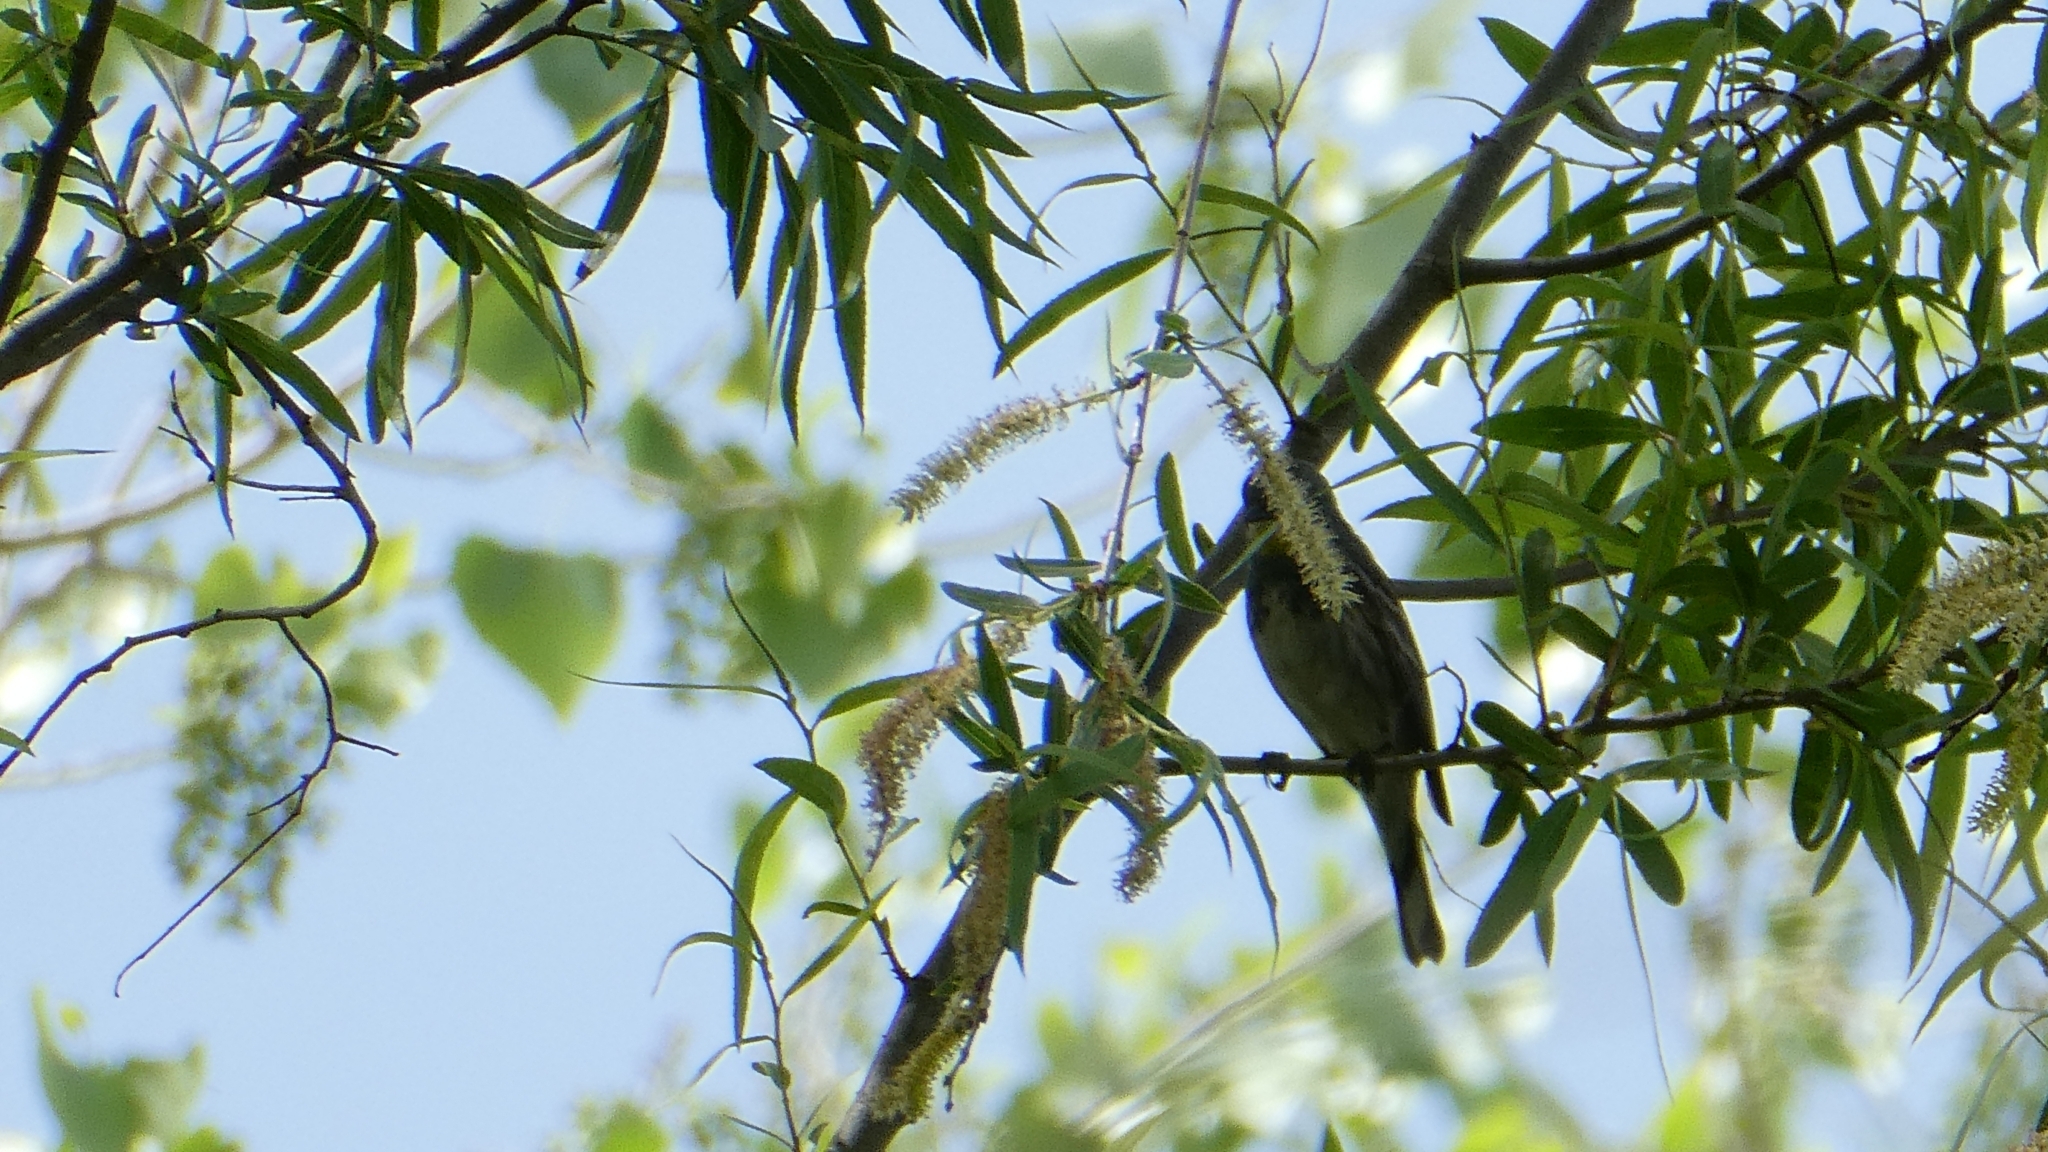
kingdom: Animalia
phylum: Chordata
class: Aves
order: Passeriformes
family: Parulidae
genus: Setophaga
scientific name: Setophaga coronata
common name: Myrtle warbler
